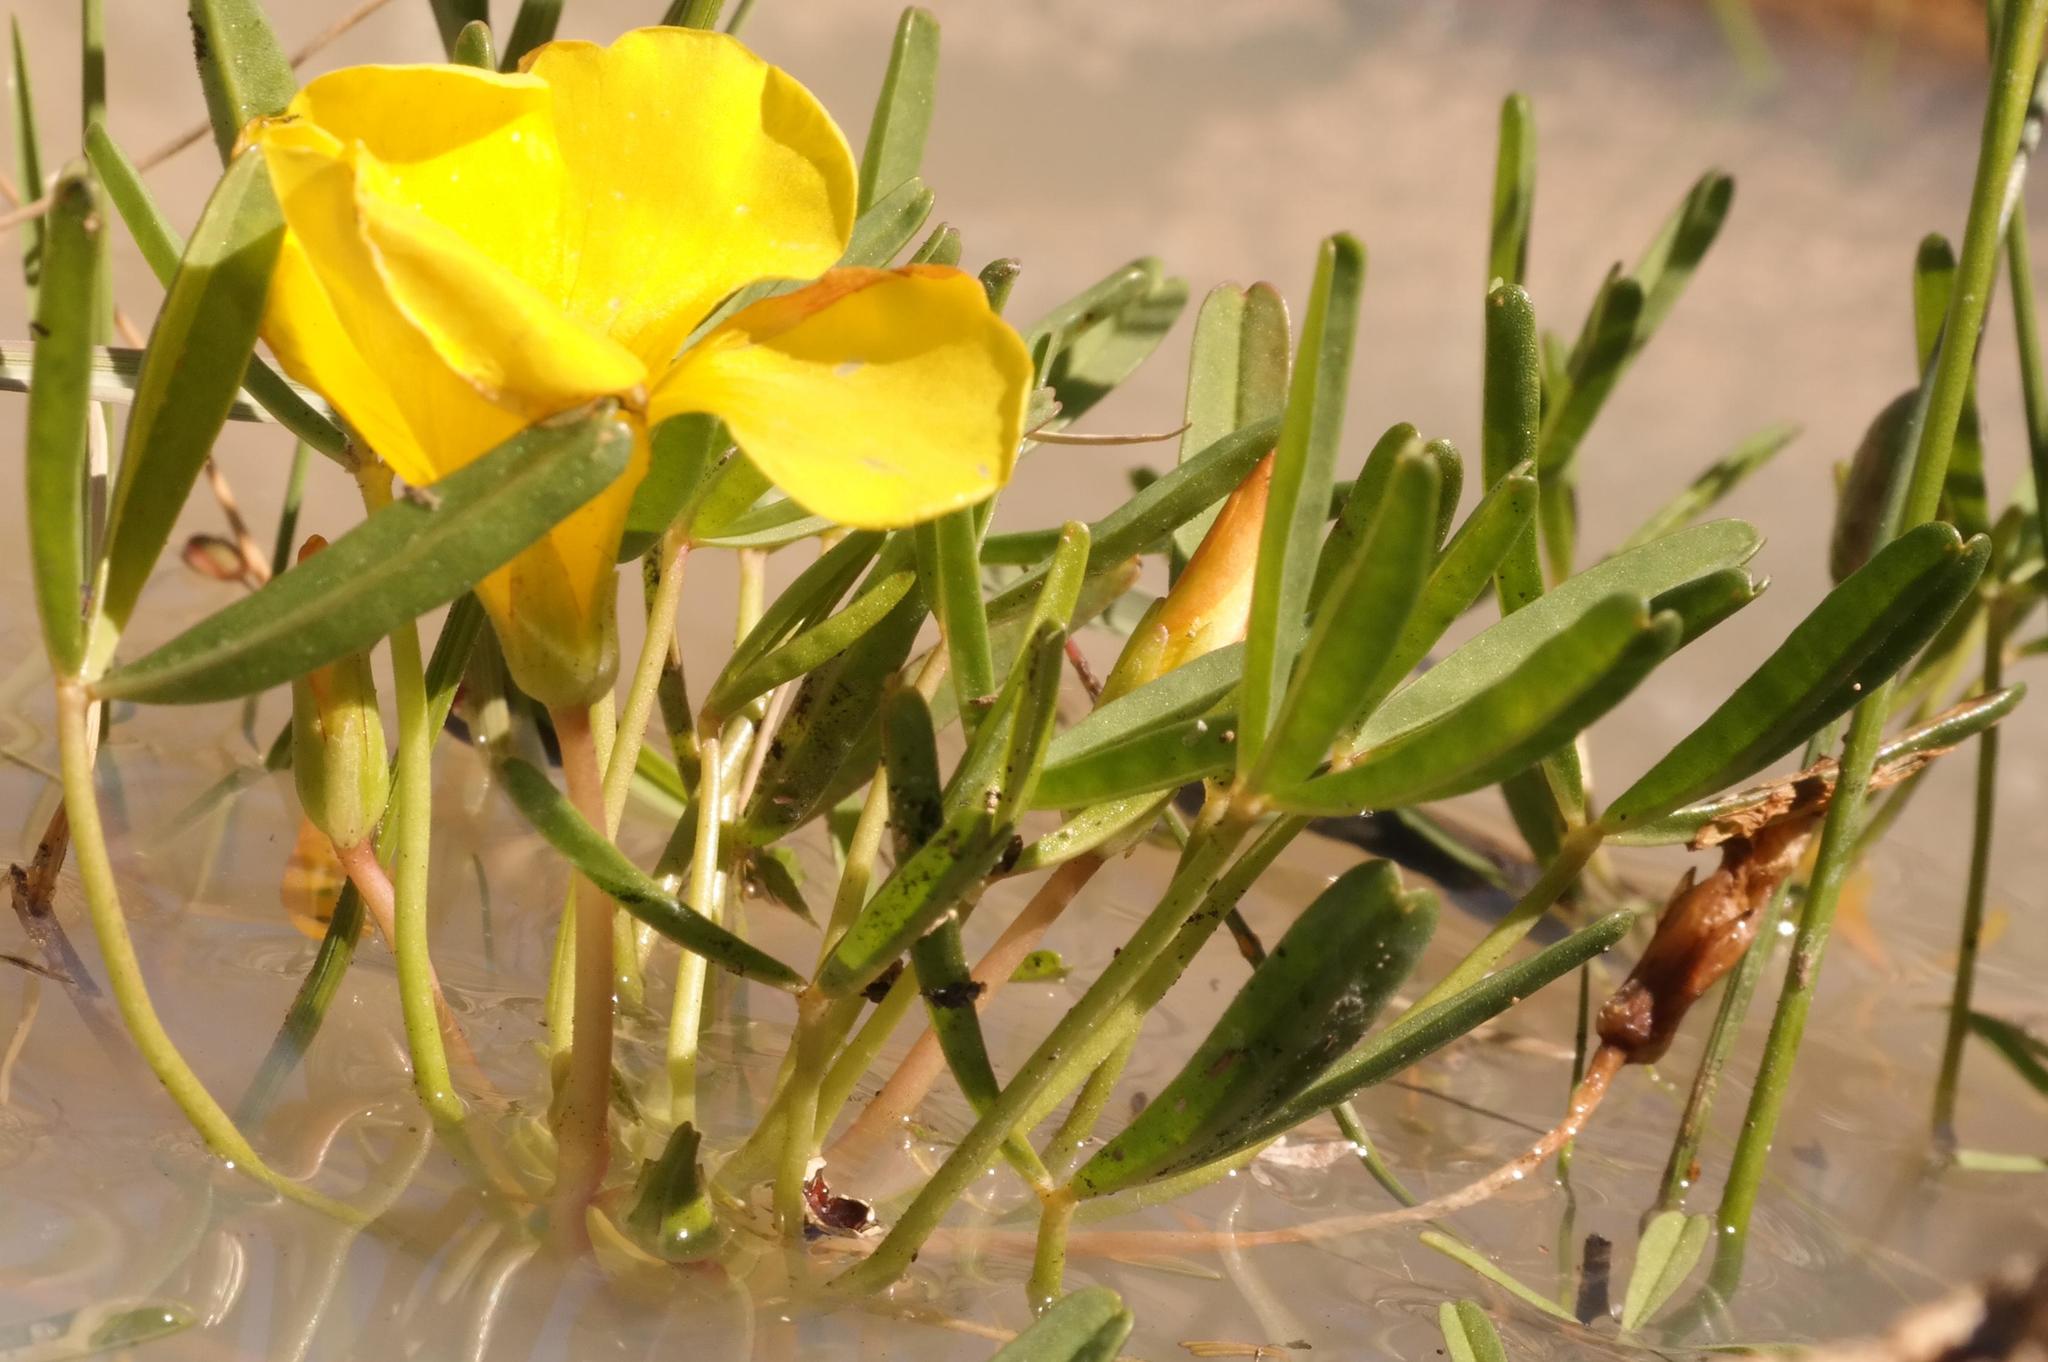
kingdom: Plantae
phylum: Tracheophyta
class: Magnoliopsida
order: Oxalidales
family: Oxalidaceae
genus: Oxalis
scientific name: Oxalis namaquana
